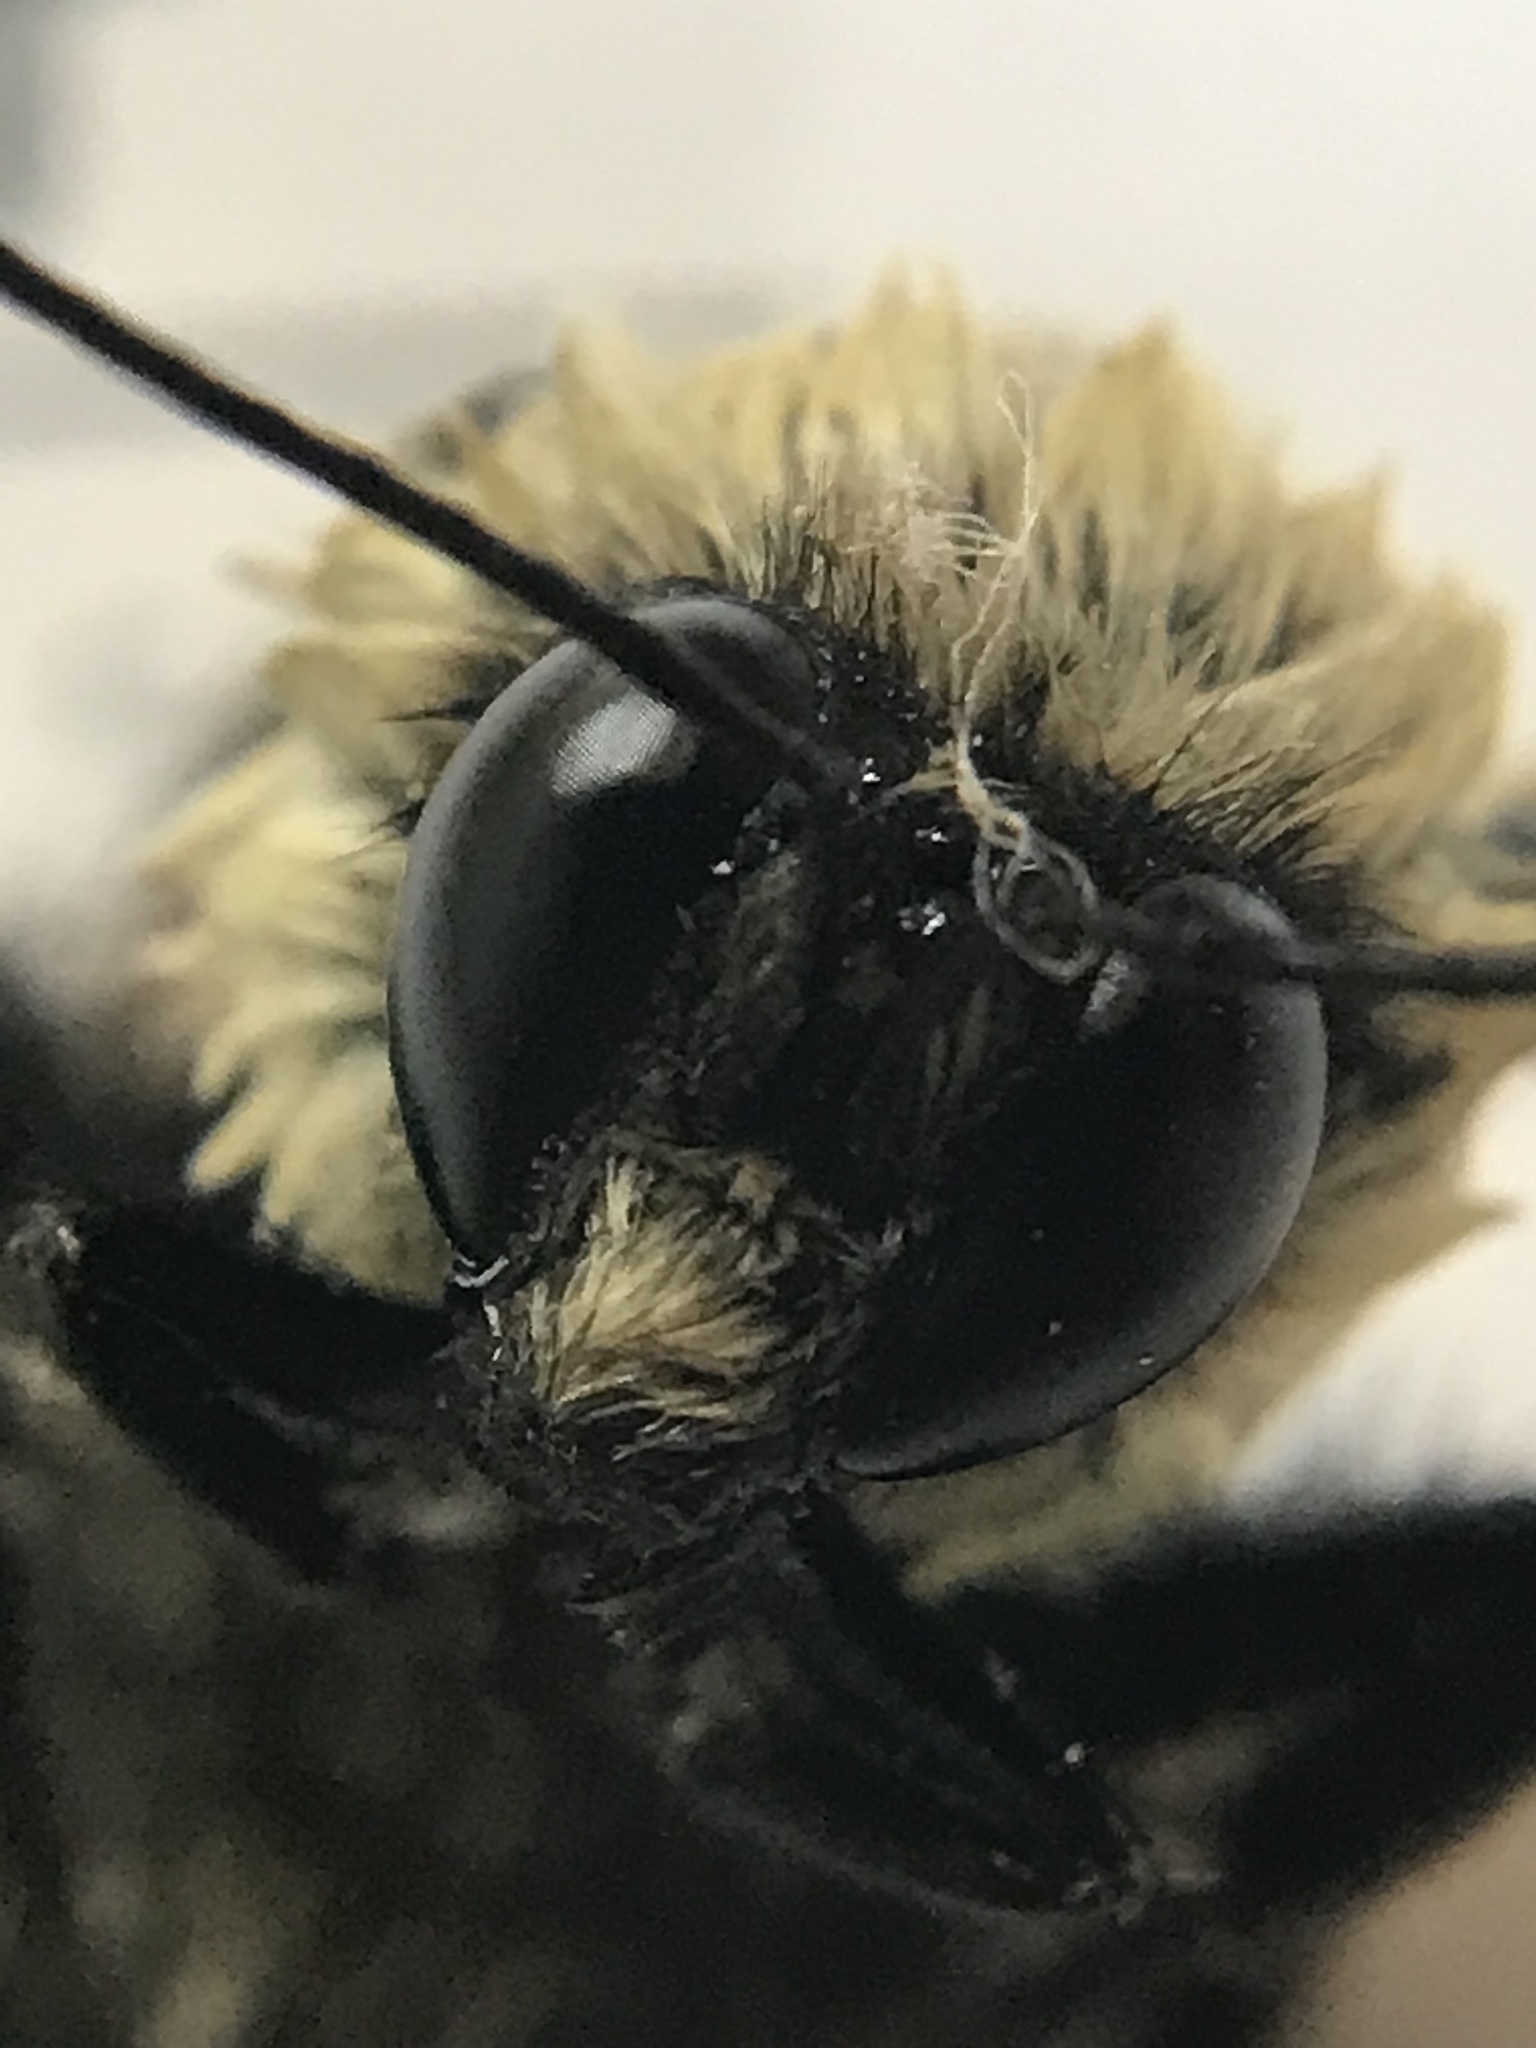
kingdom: Animalia
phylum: Arthropoda
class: Insecta
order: Hymenoptera
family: Apidae
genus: Bombus
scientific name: Bombus griseocollis
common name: Brown-belted bumble bee
